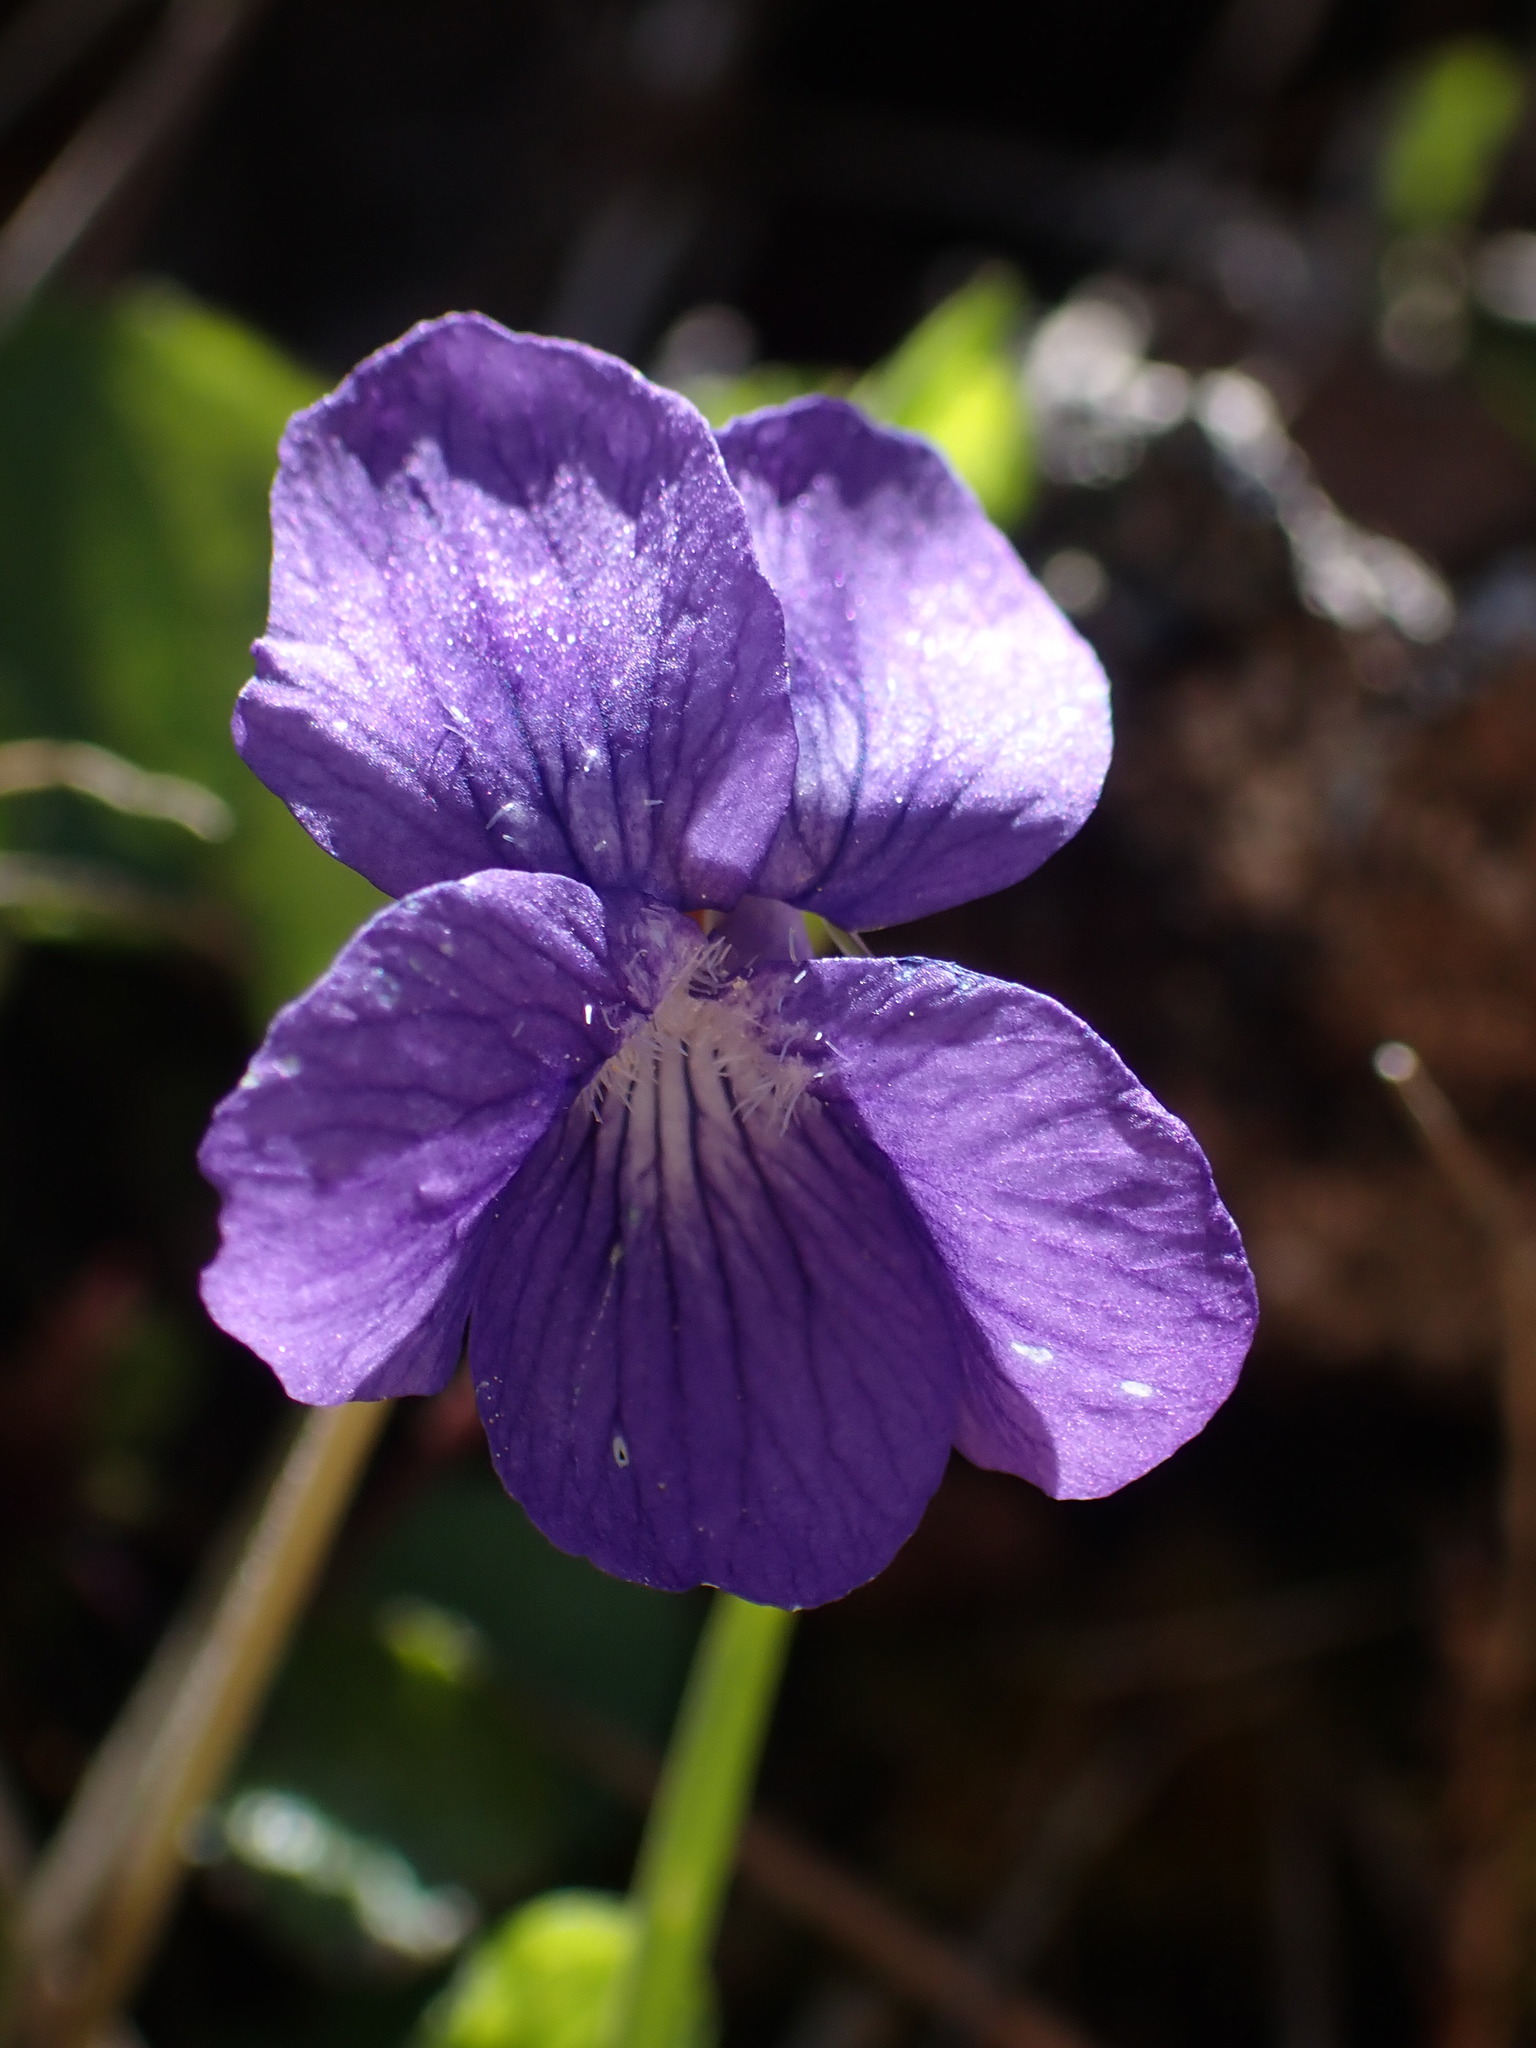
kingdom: Plantae
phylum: Tracheophyta
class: Magnoliopsida
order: Malpighiales
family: Violaceae
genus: Viola
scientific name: Viola adunca
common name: Sand violet
